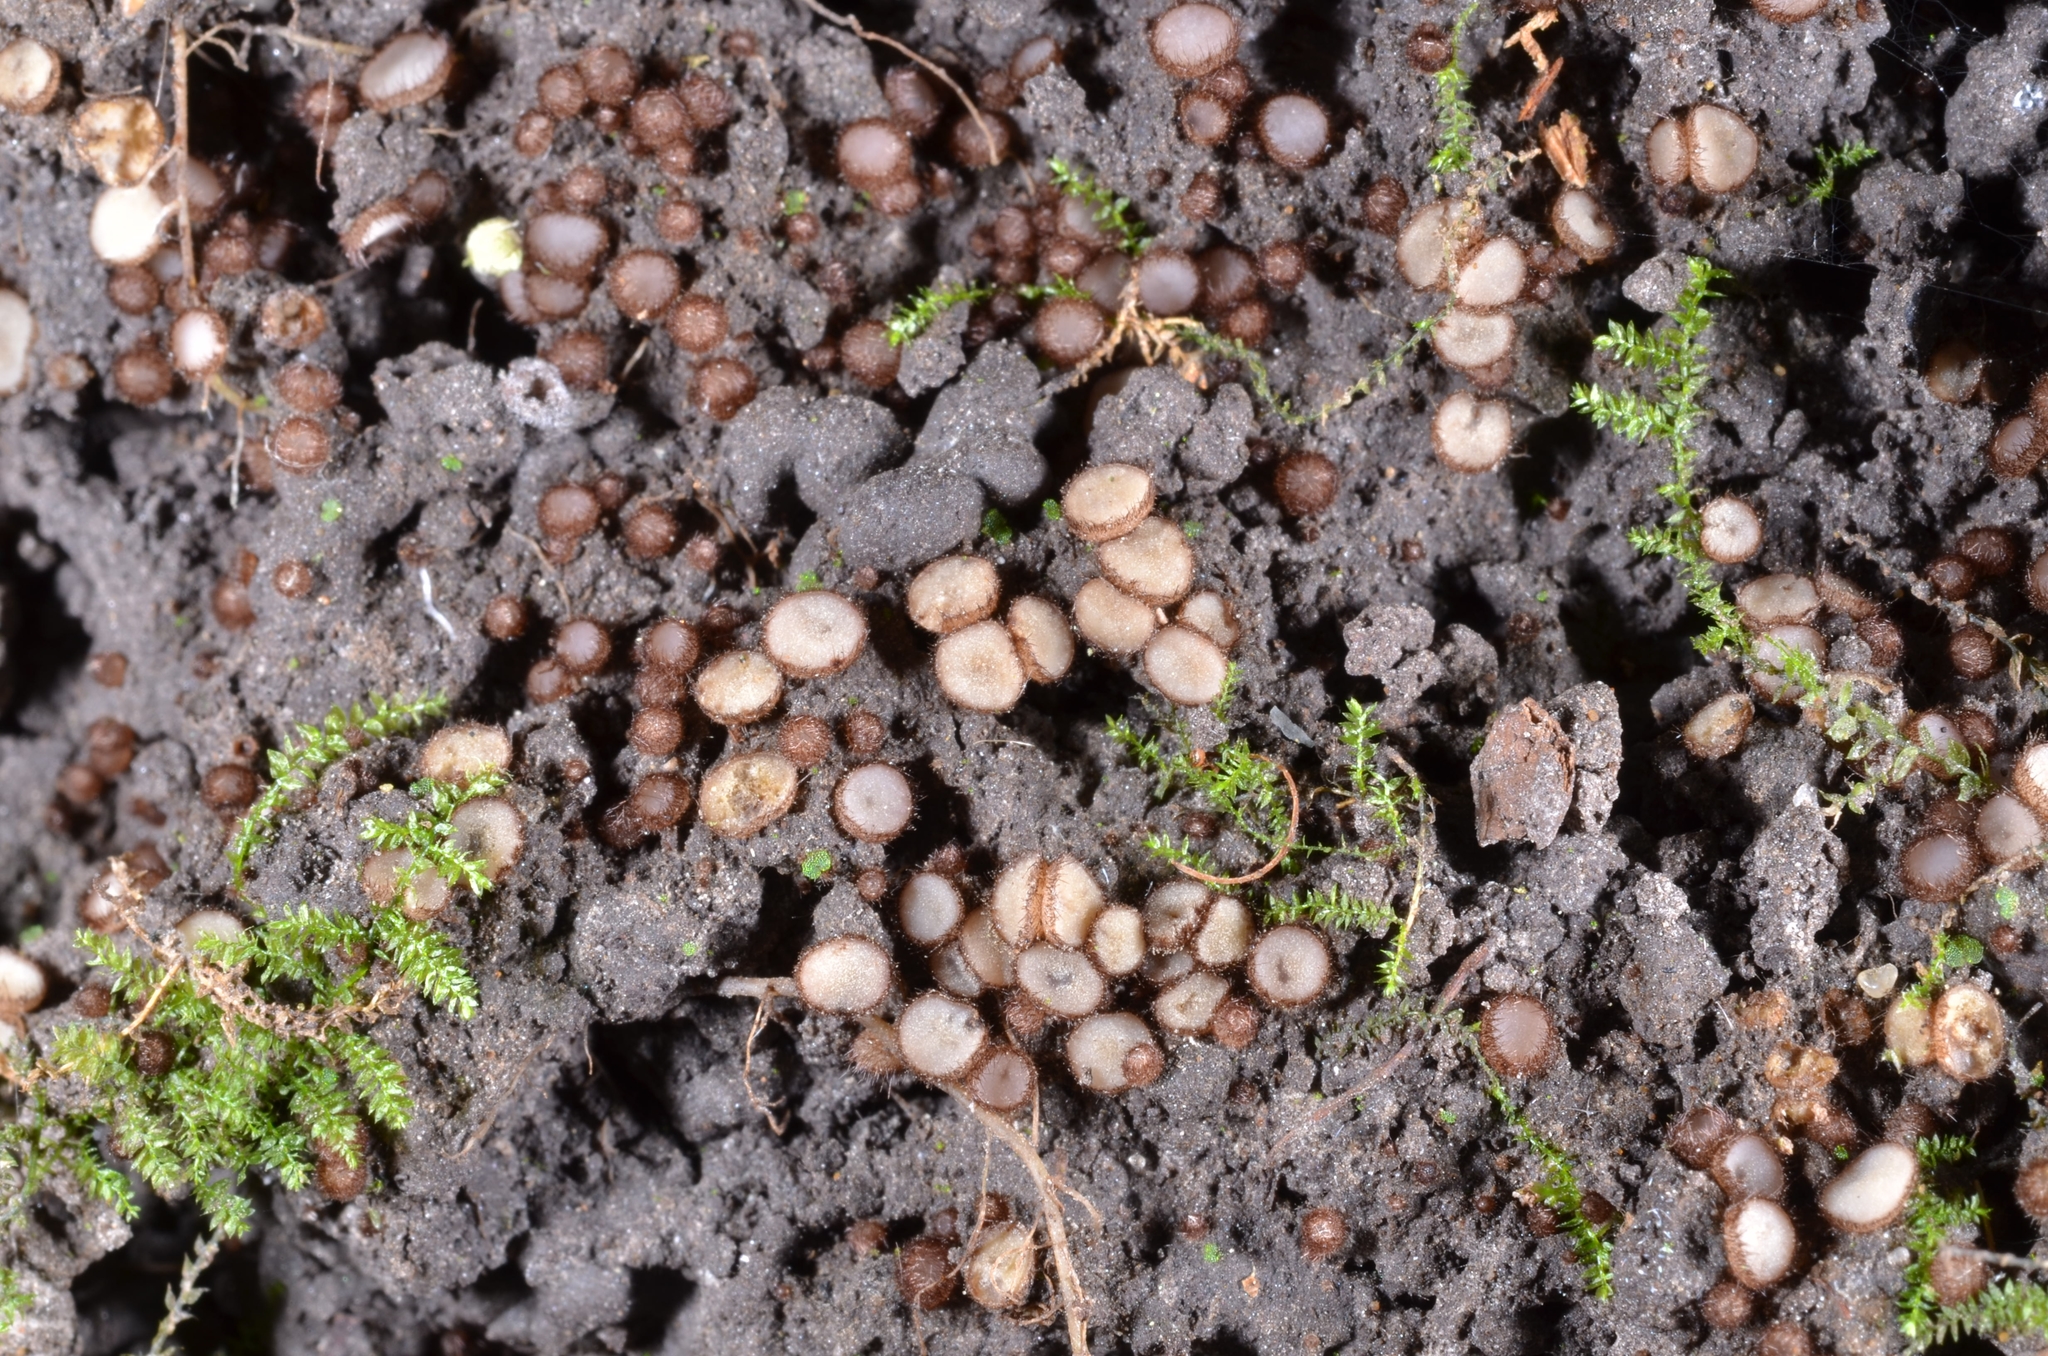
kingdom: Fungi
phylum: Ascomycota
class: Pezizomycetes
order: Pezizales
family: Pyronemataceae
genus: Trichophaeopsis
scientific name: Trichophaeopsis paludosa
